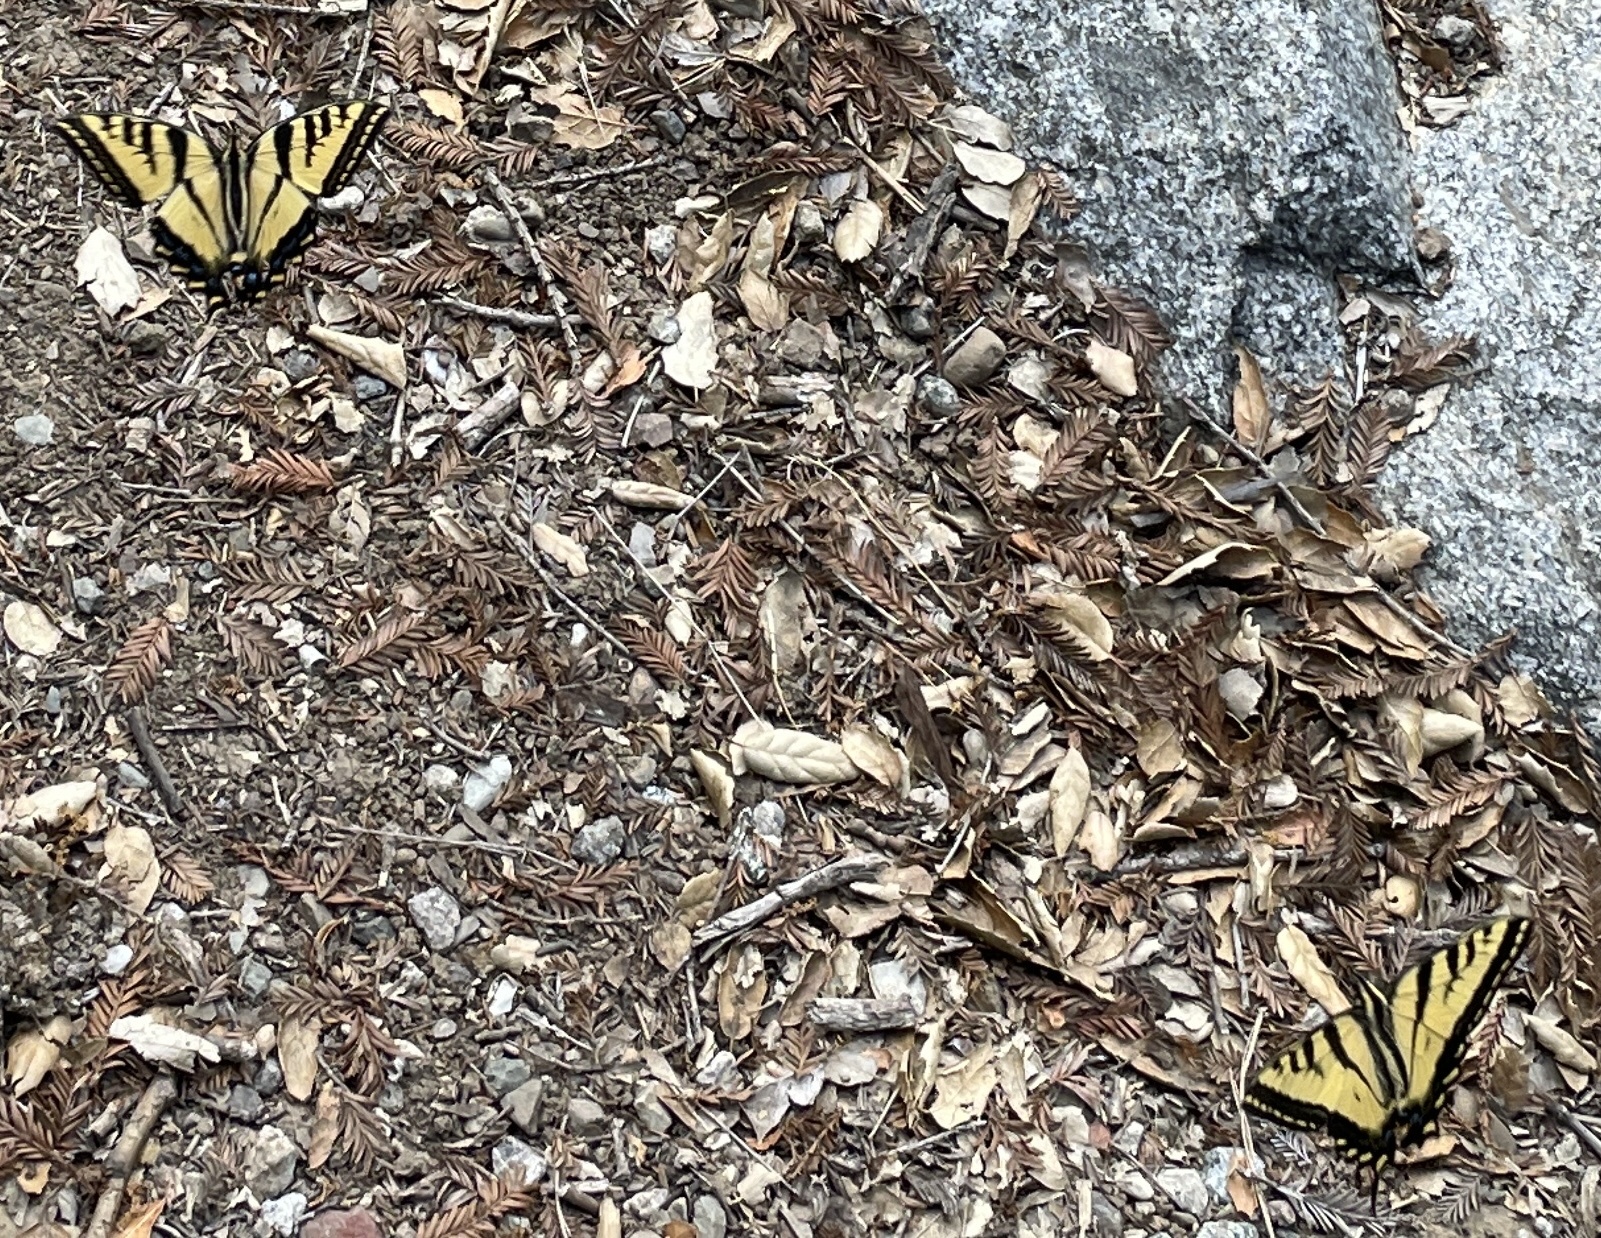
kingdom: Animalia
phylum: Arthropoda
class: Insecta
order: Lepidoptera
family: Papilionidae
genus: Papilio
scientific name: Papilio rutulus
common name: Western tiger swallowtail
